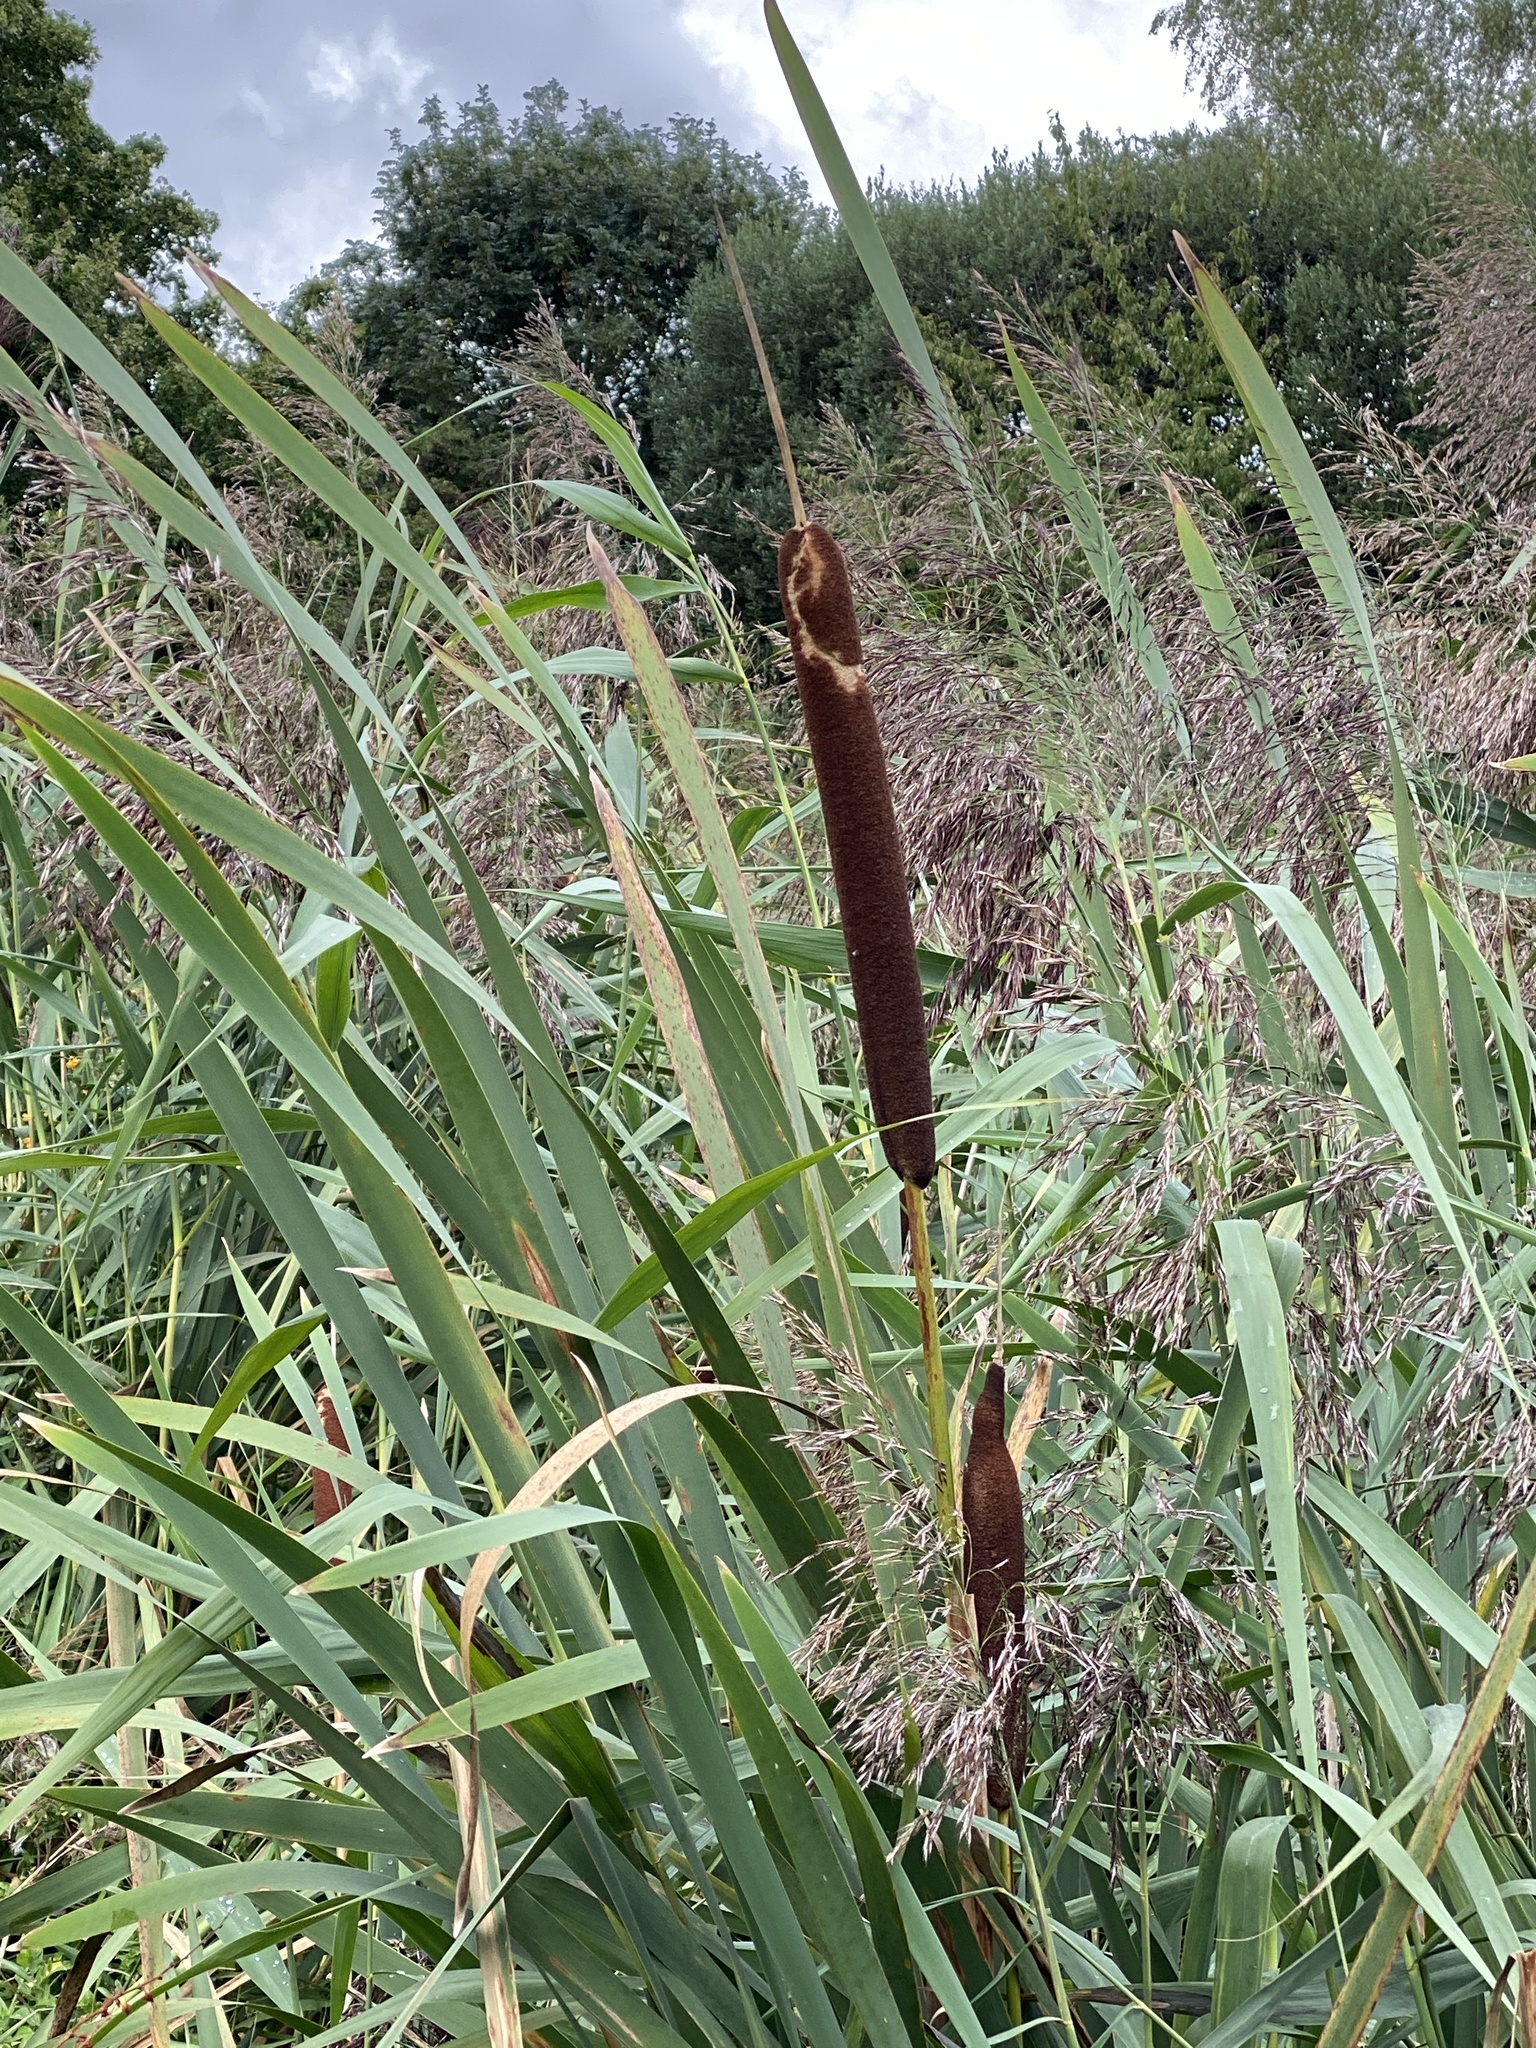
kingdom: Plantae
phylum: Tracheophyta
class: Liliopsida
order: Poales
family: Typhaceae
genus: Typha
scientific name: Typha latifolia
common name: Broadleaf cattail
